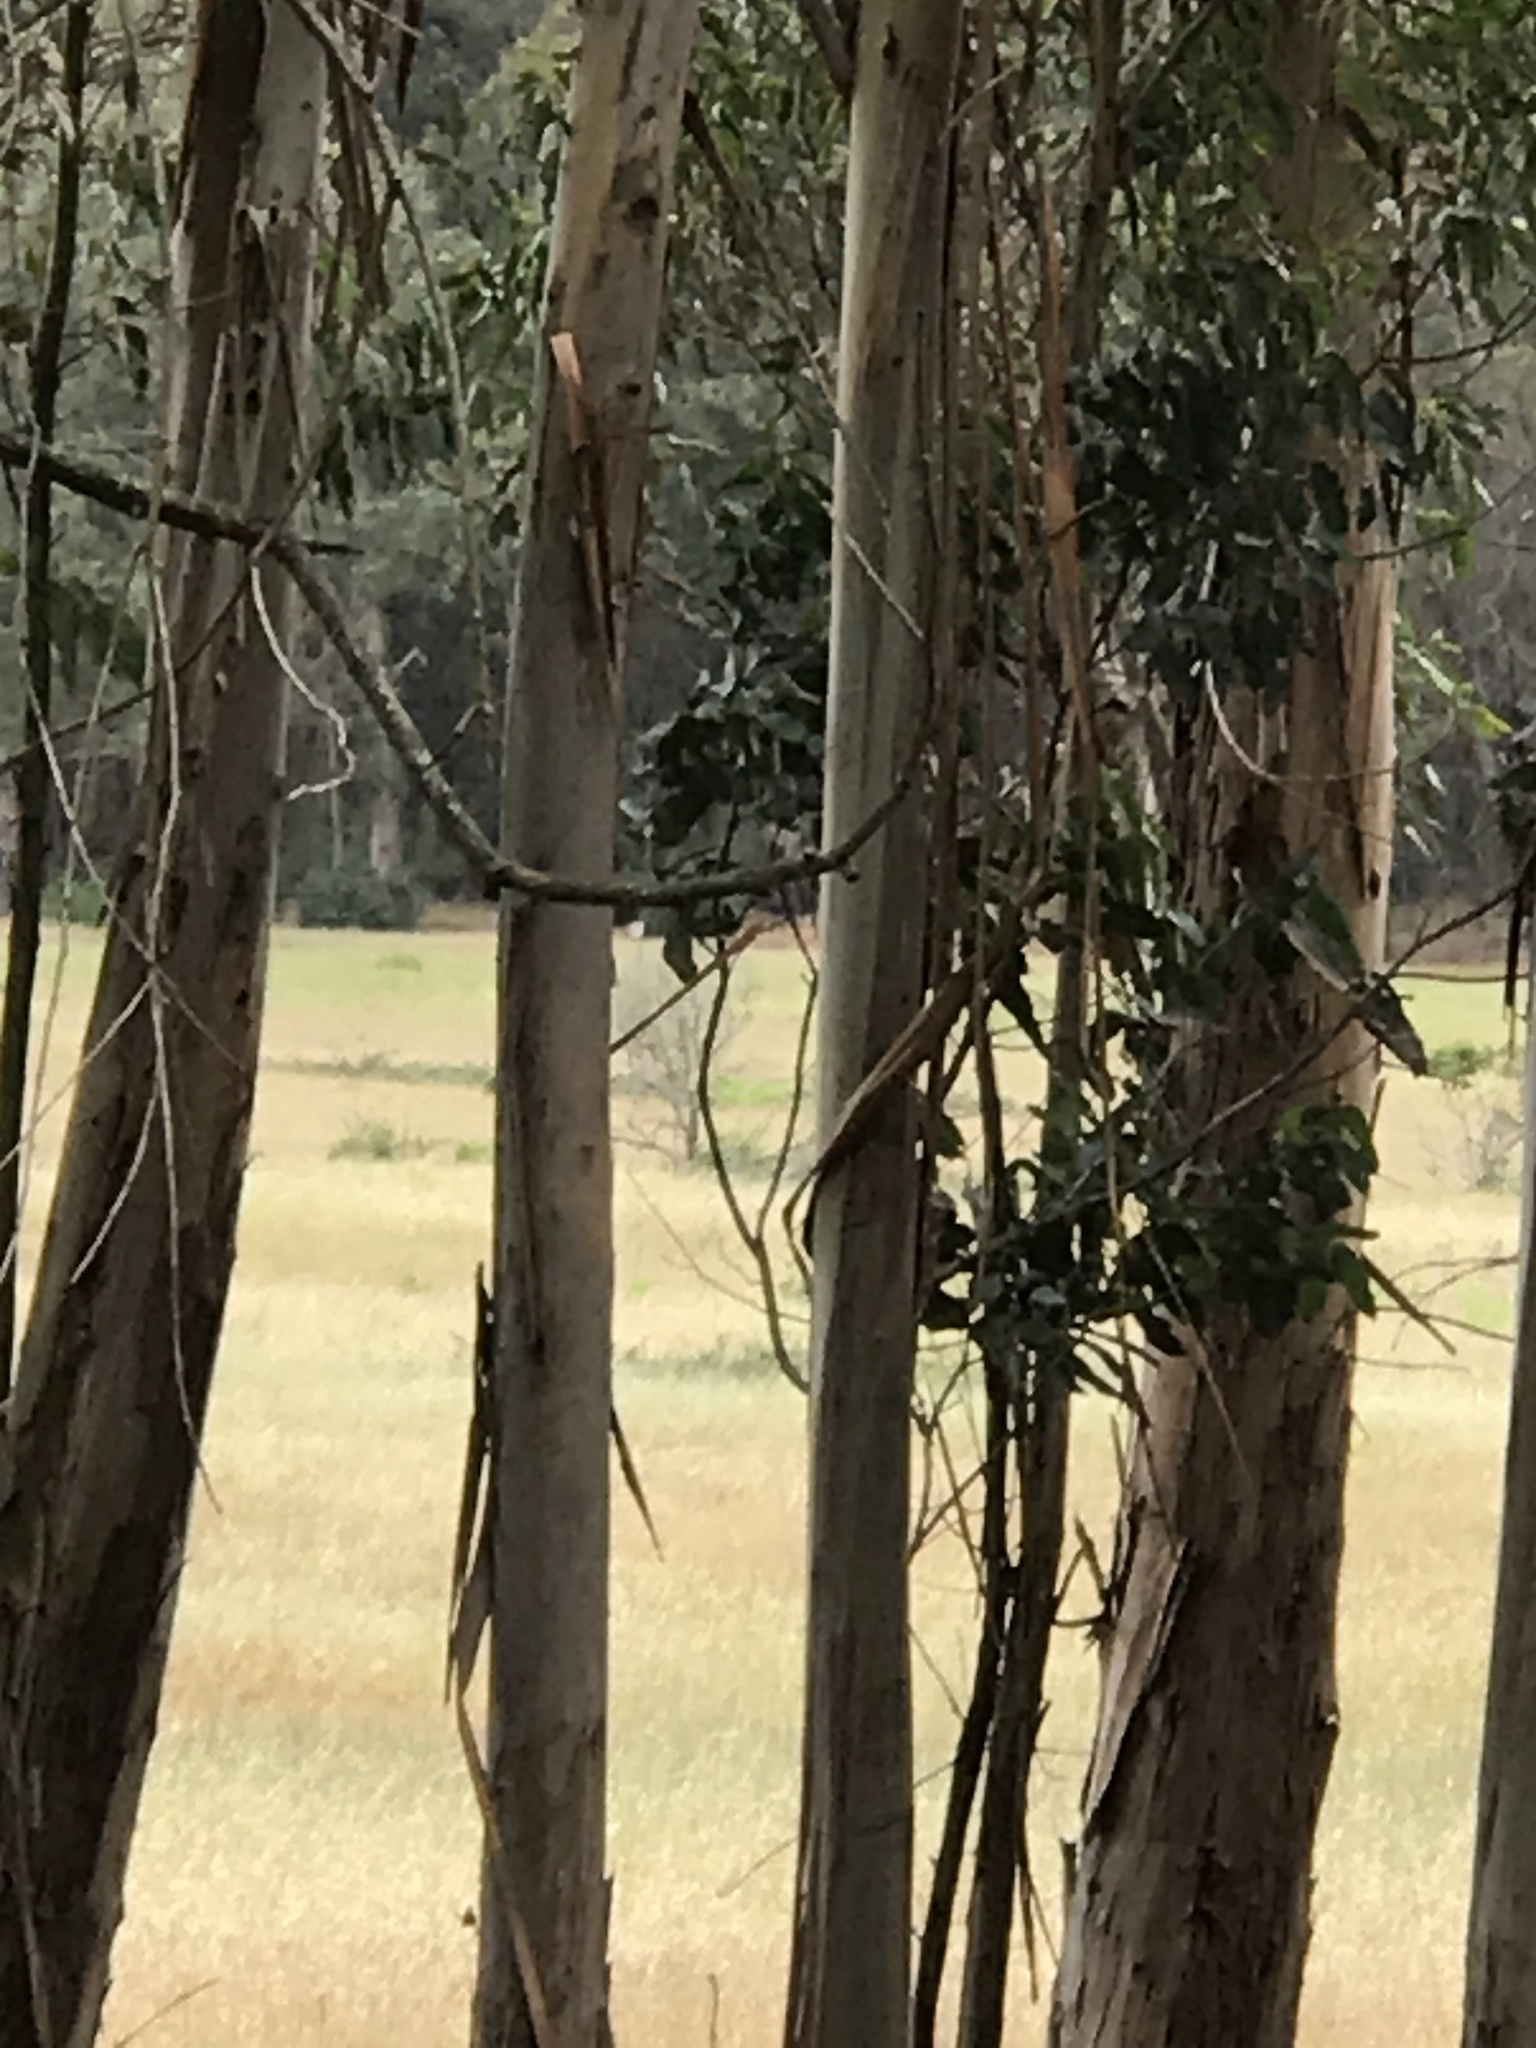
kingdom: Animalia
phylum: Chordata
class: Aves
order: Passeriformes
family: Turdidae
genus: Sialia
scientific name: Sialia mexicana
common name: Western bluebird
